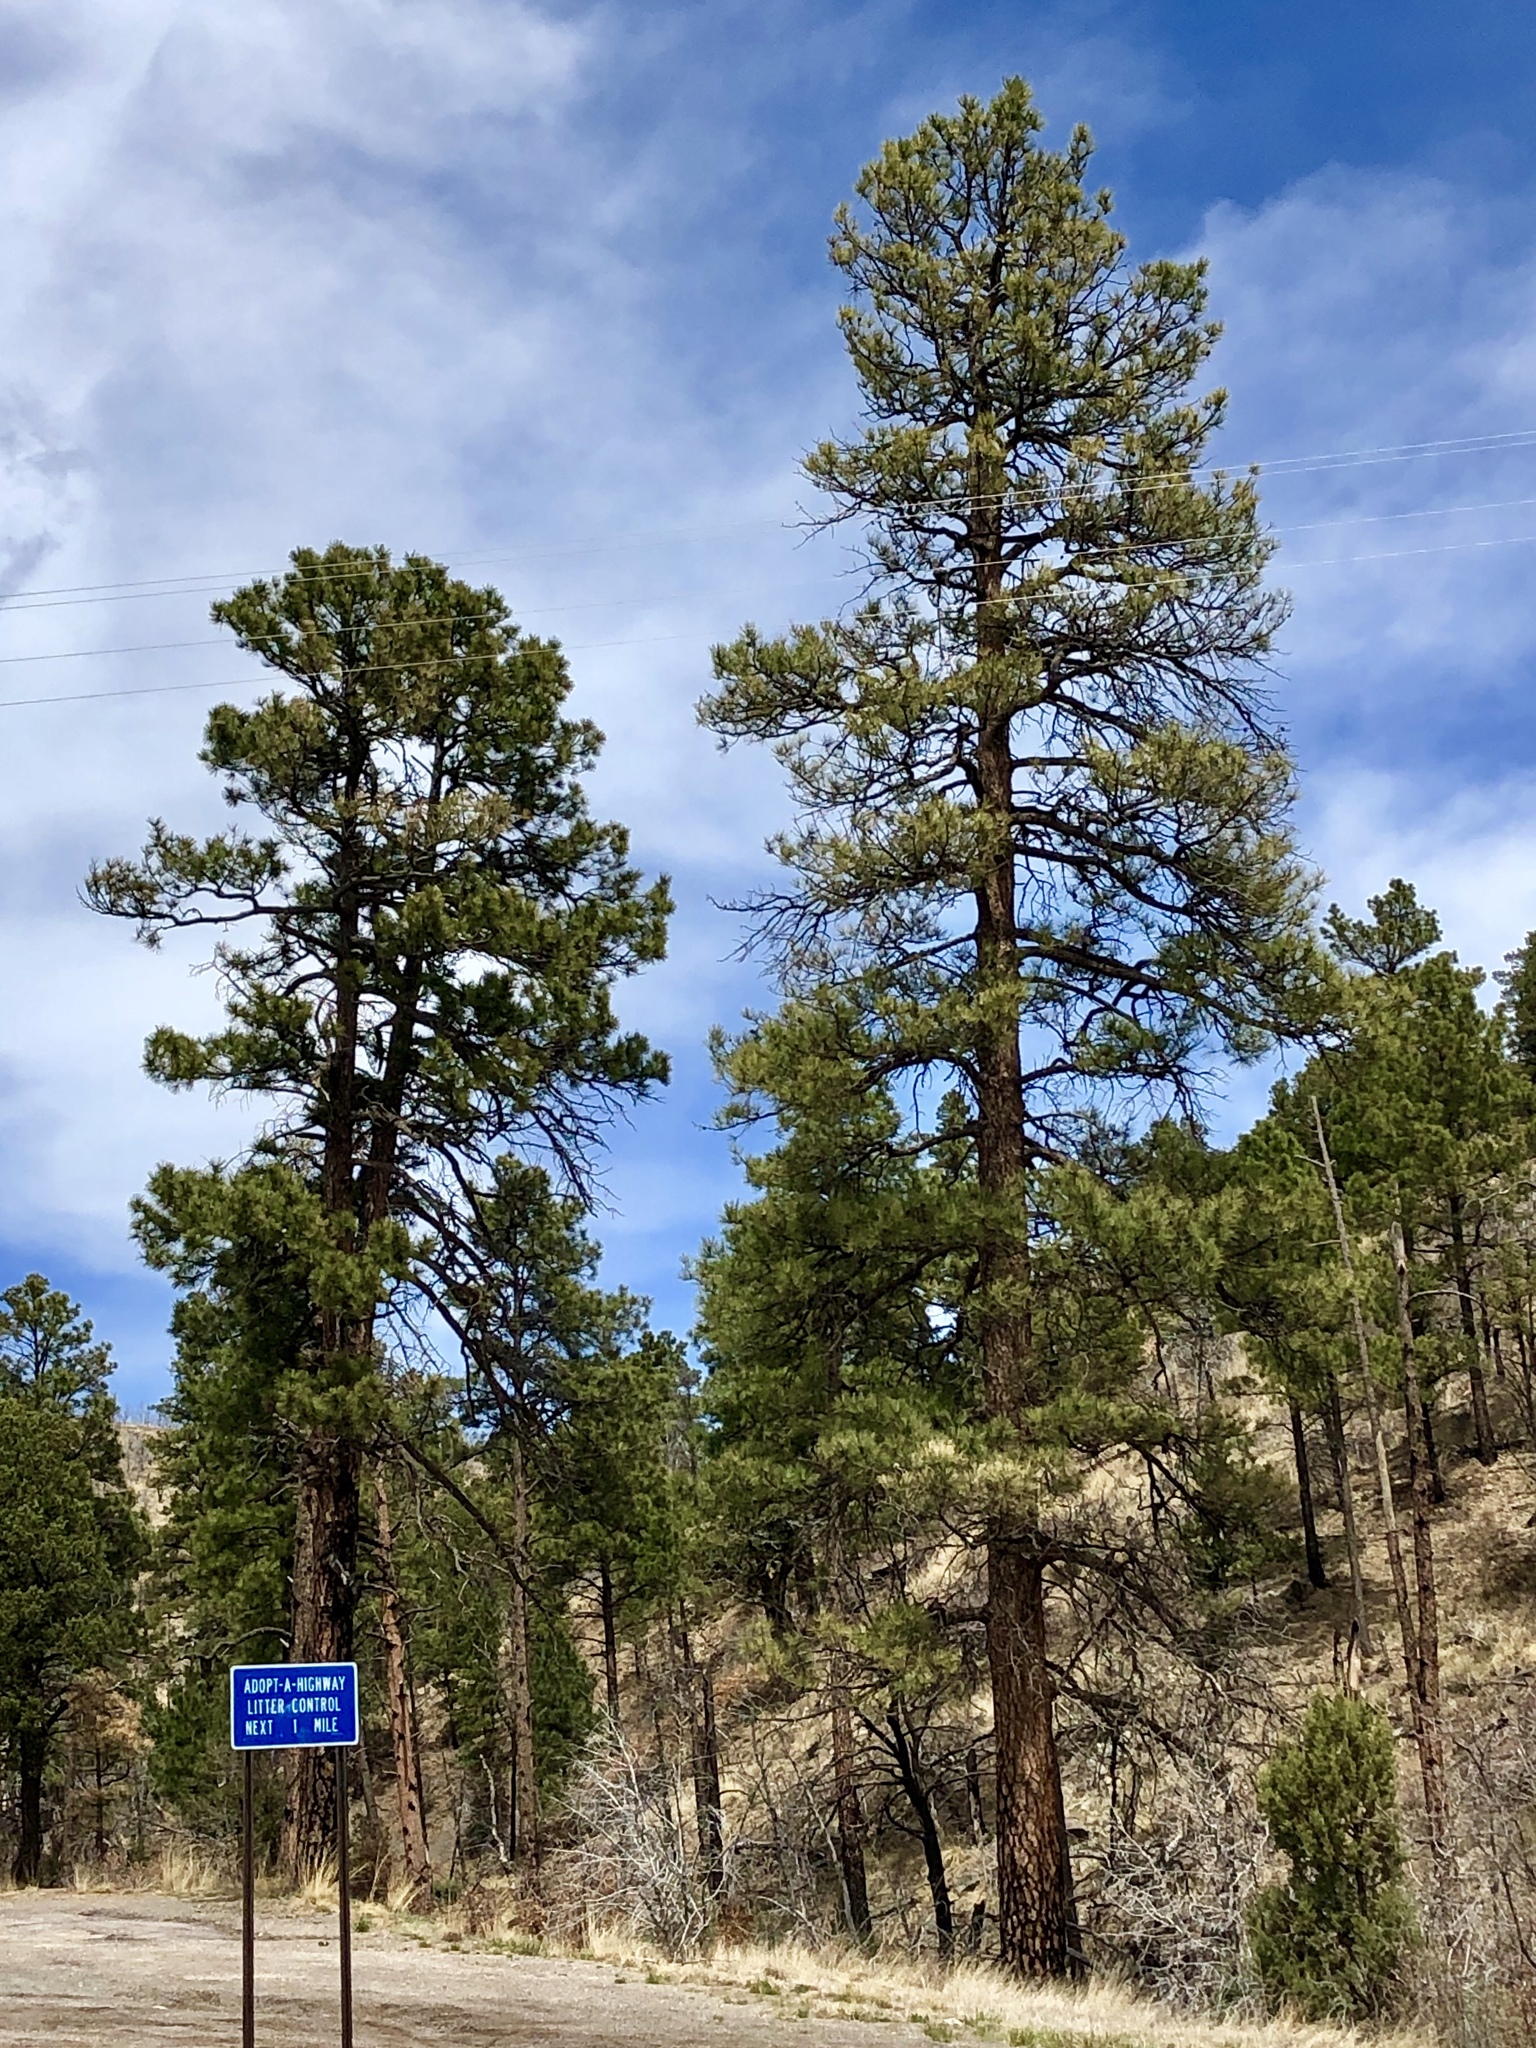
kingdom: Plantae
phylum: Tracheophyta
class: Pinopsida
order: Pinales
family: Pinaceae
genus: Pinus
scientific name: Pinus ponderosa
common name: Western yellow-pine
